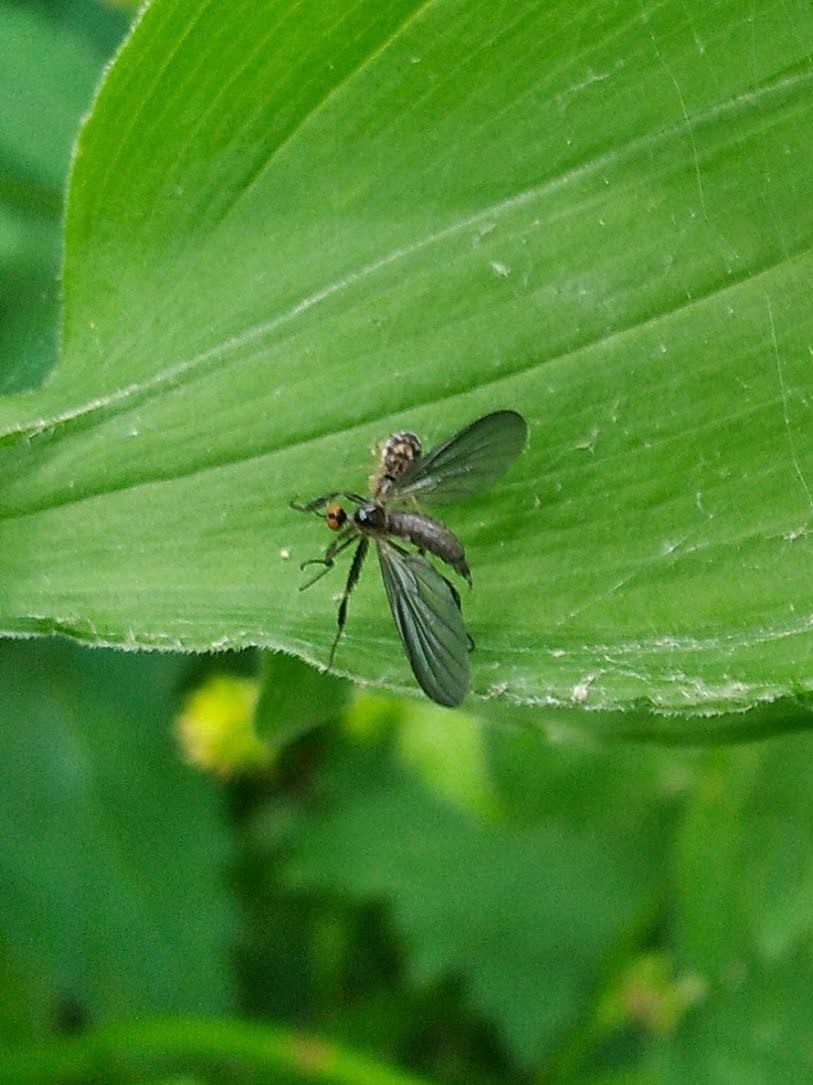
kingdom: Animalia
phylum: Arthropoda
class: Insecta
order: Diptera
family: Empididae
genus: Rhamphomyia
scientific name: Rhamphomyia longicauda
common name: Long-tailed dance fly
